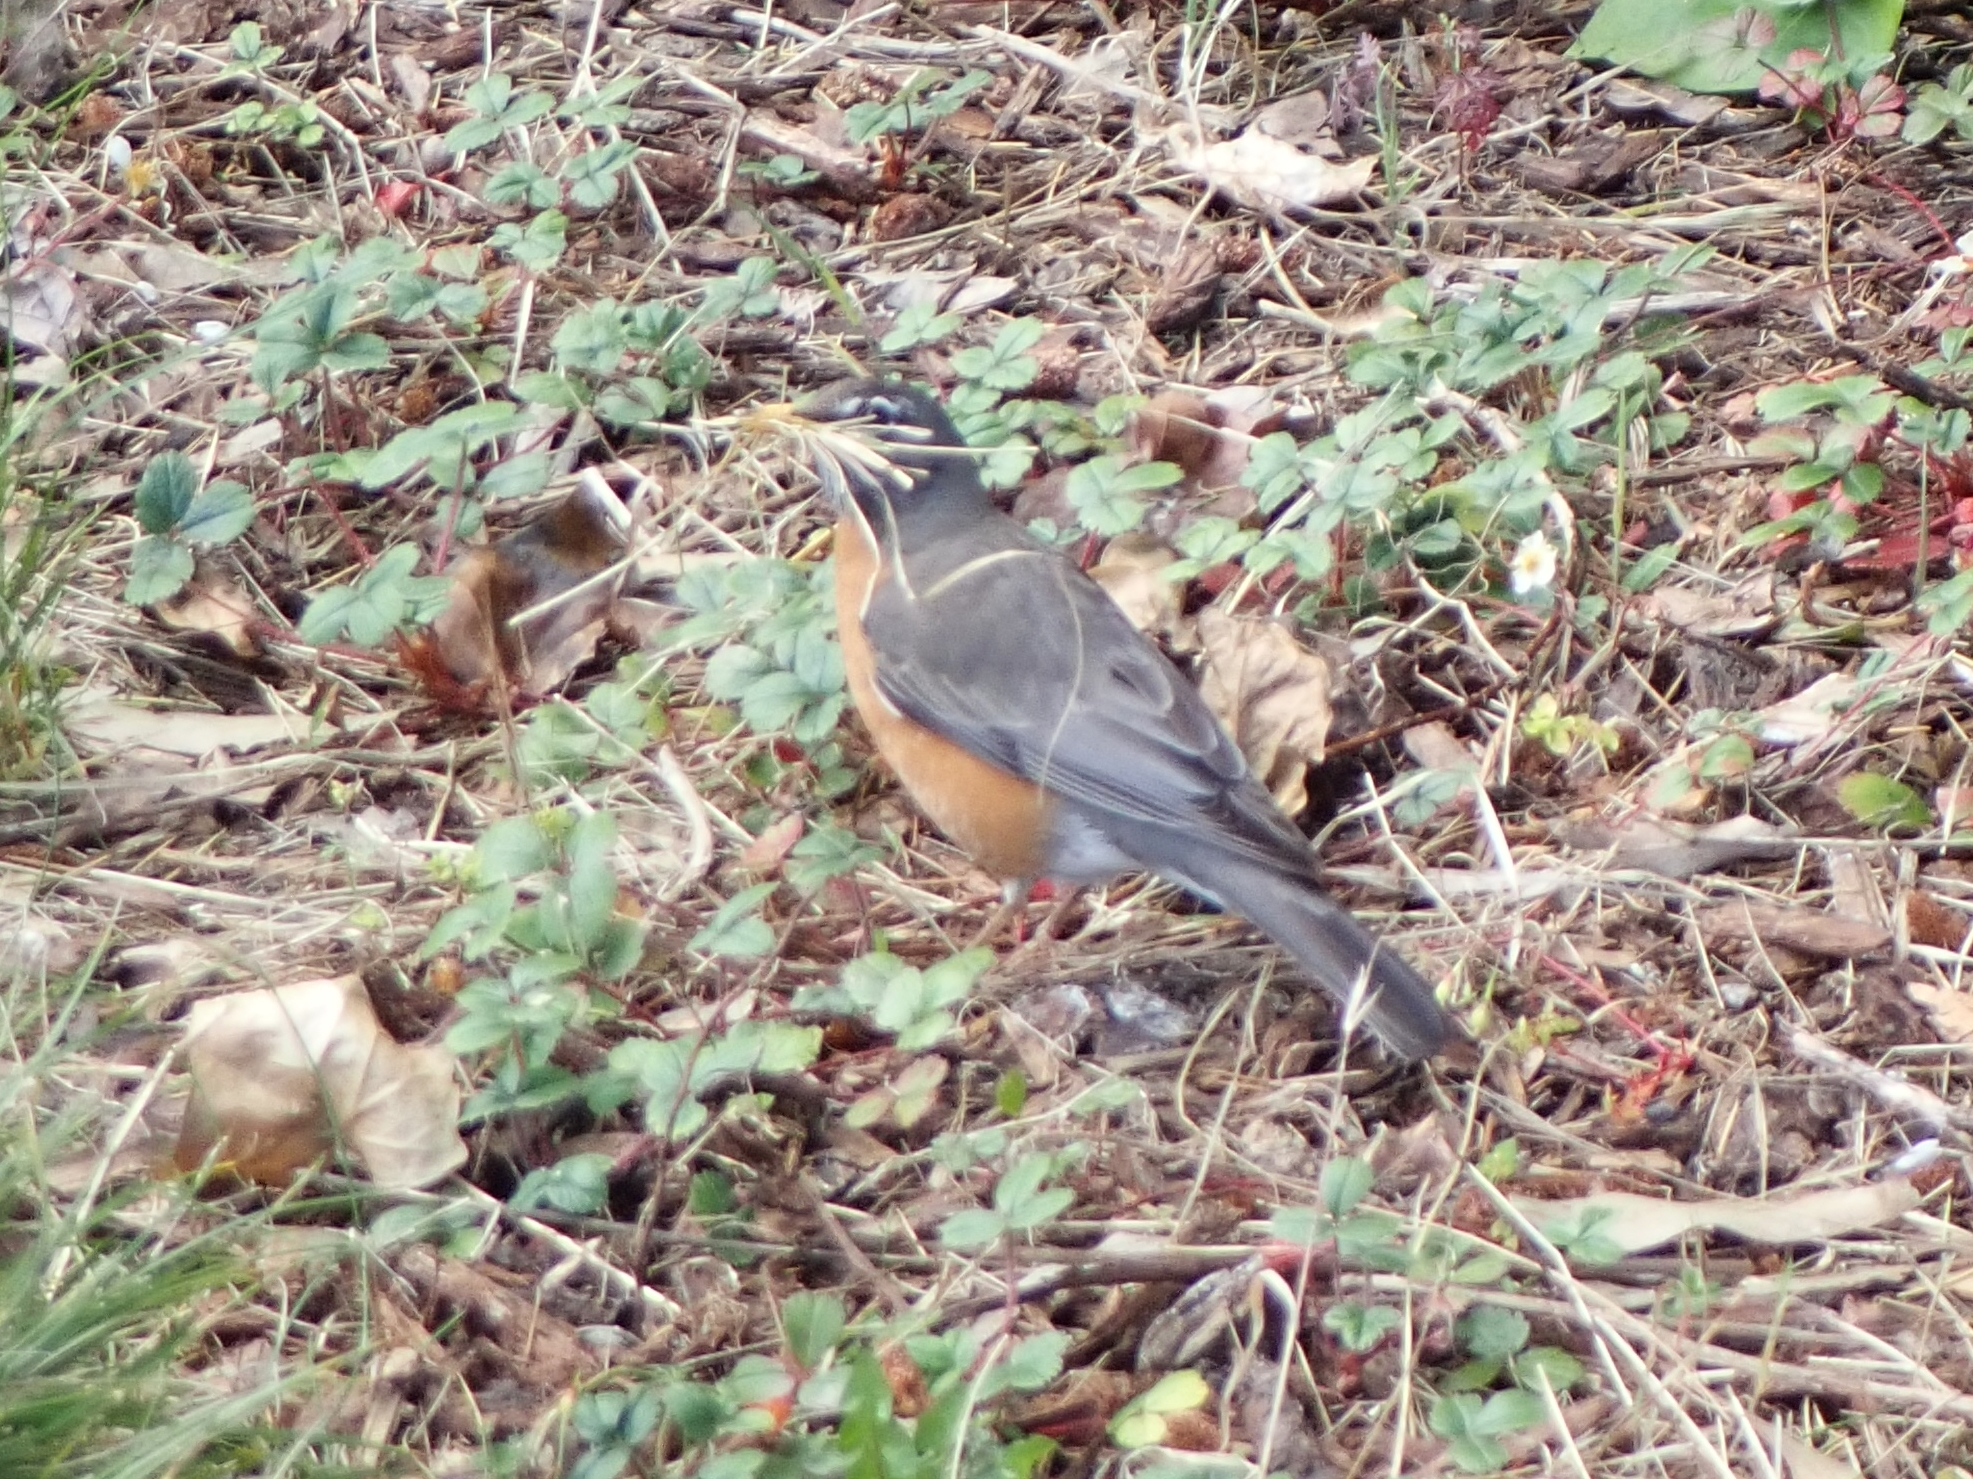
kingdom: Animalia
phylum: Chordata
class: Aves
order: Passeriformes
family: Turdidae
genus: Turdus
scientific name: Turdus migratorius
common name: American robin
